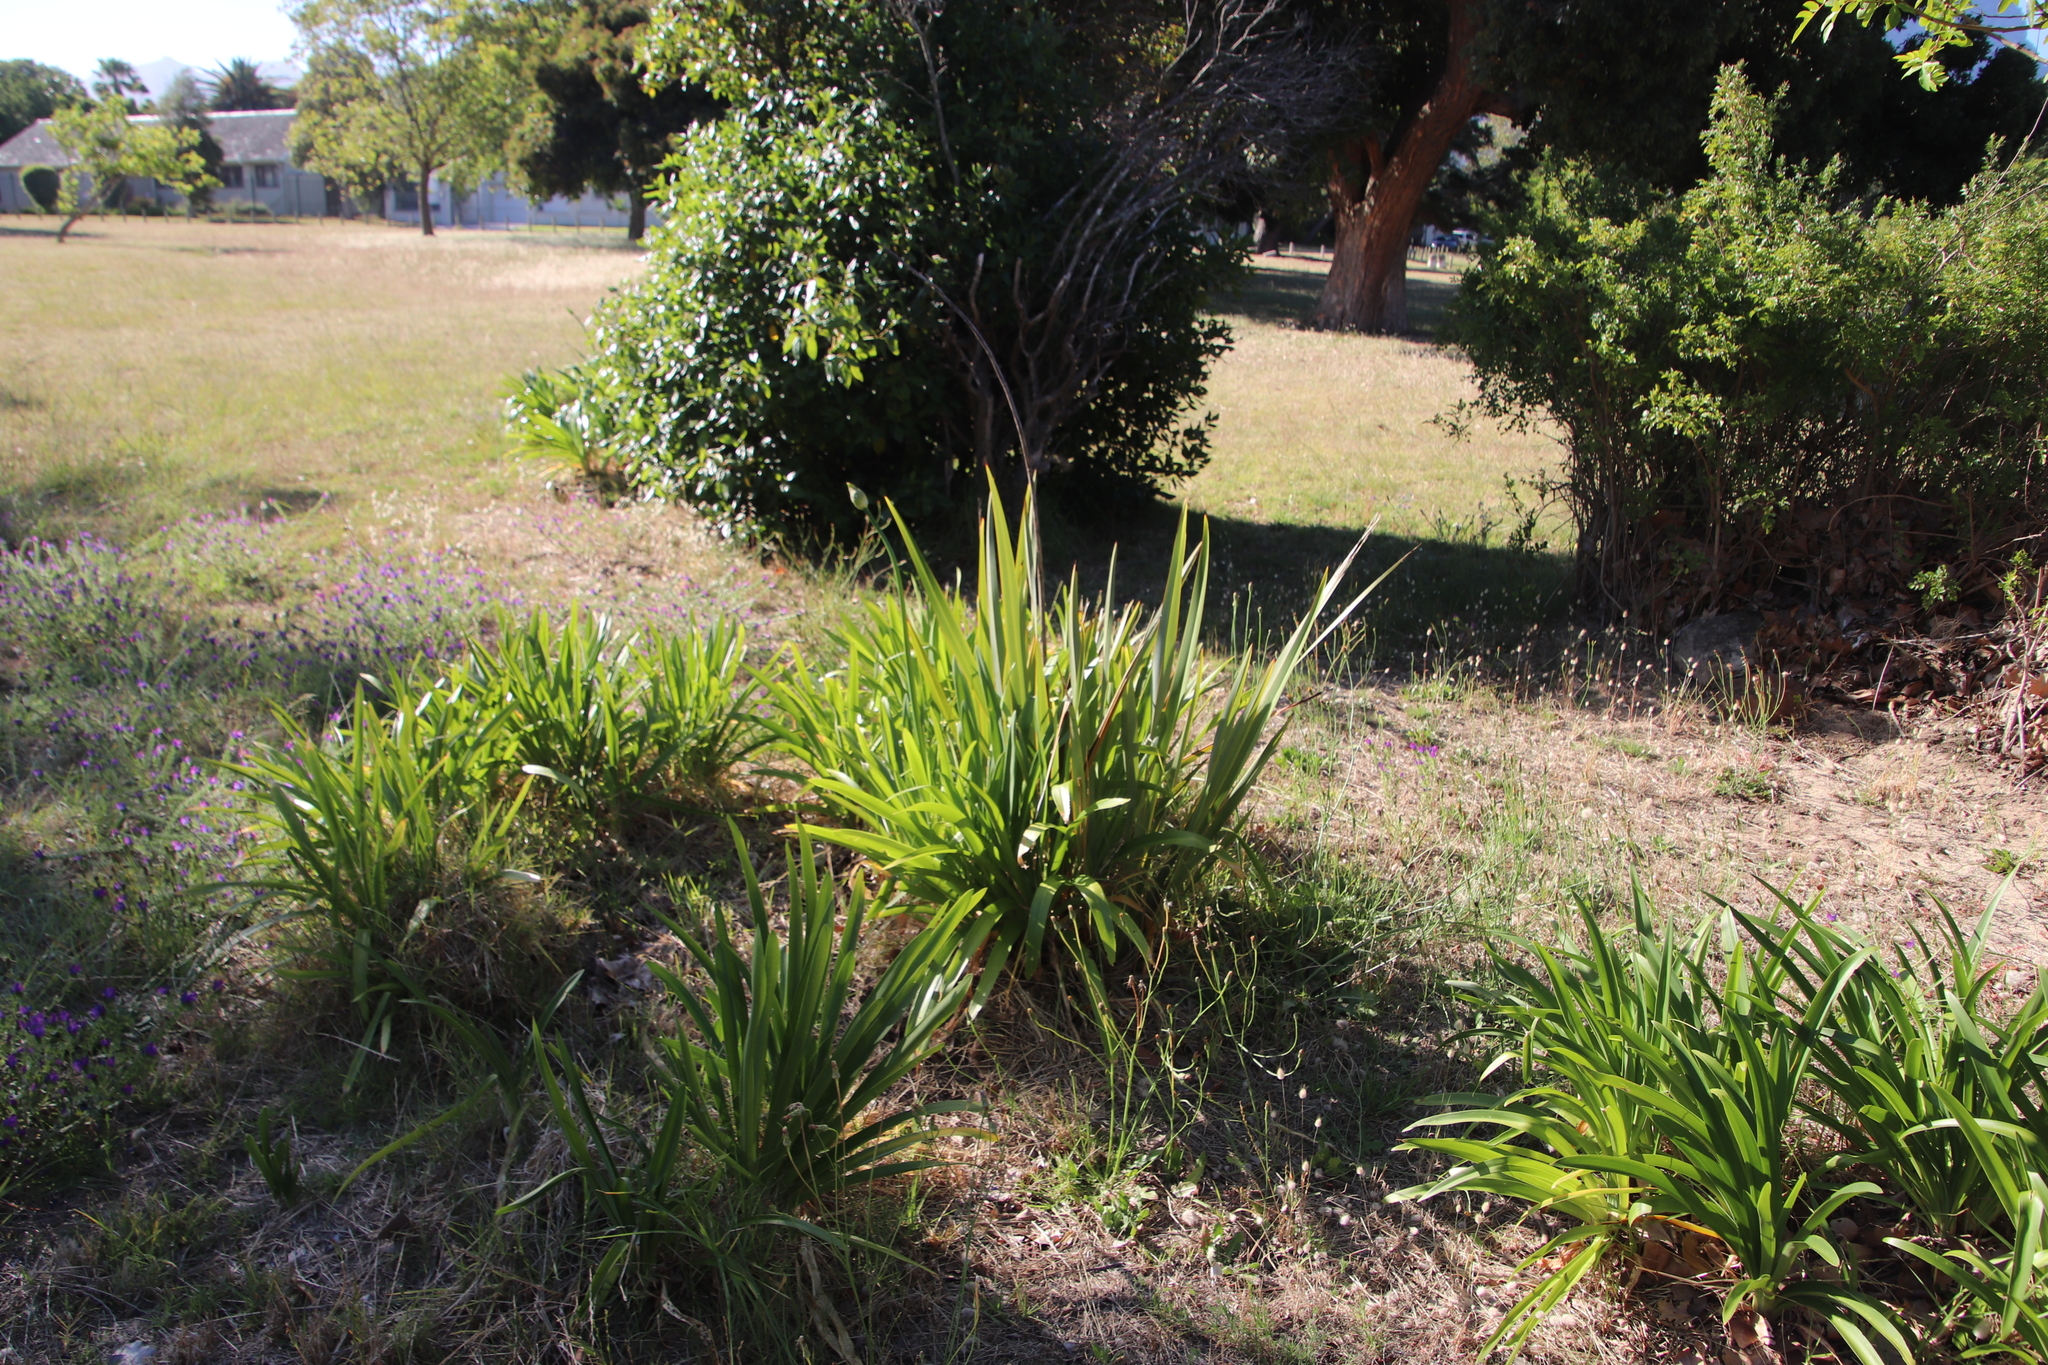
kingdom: Plantae
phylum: Tracheophyta
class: Liliopsida
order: Asparagales
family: Amaryllidaceae
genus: Agapanthus
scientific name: Agapanthus praecox
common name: African-lily
